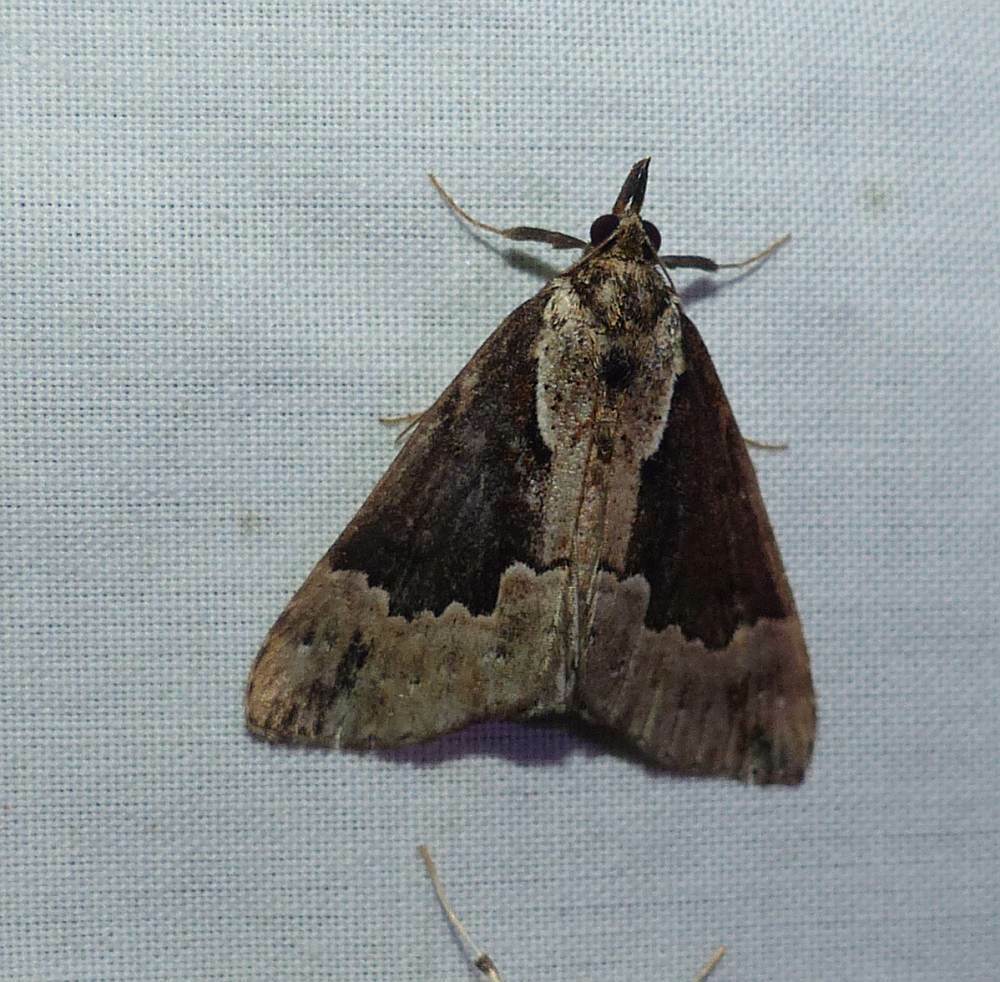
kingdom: Animalia
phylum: Arthropoda
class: Insecta
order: Lepidoptera
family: Erebidae
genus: Hypena
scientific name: Hypena baltimoralis
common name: Baltimore snout
